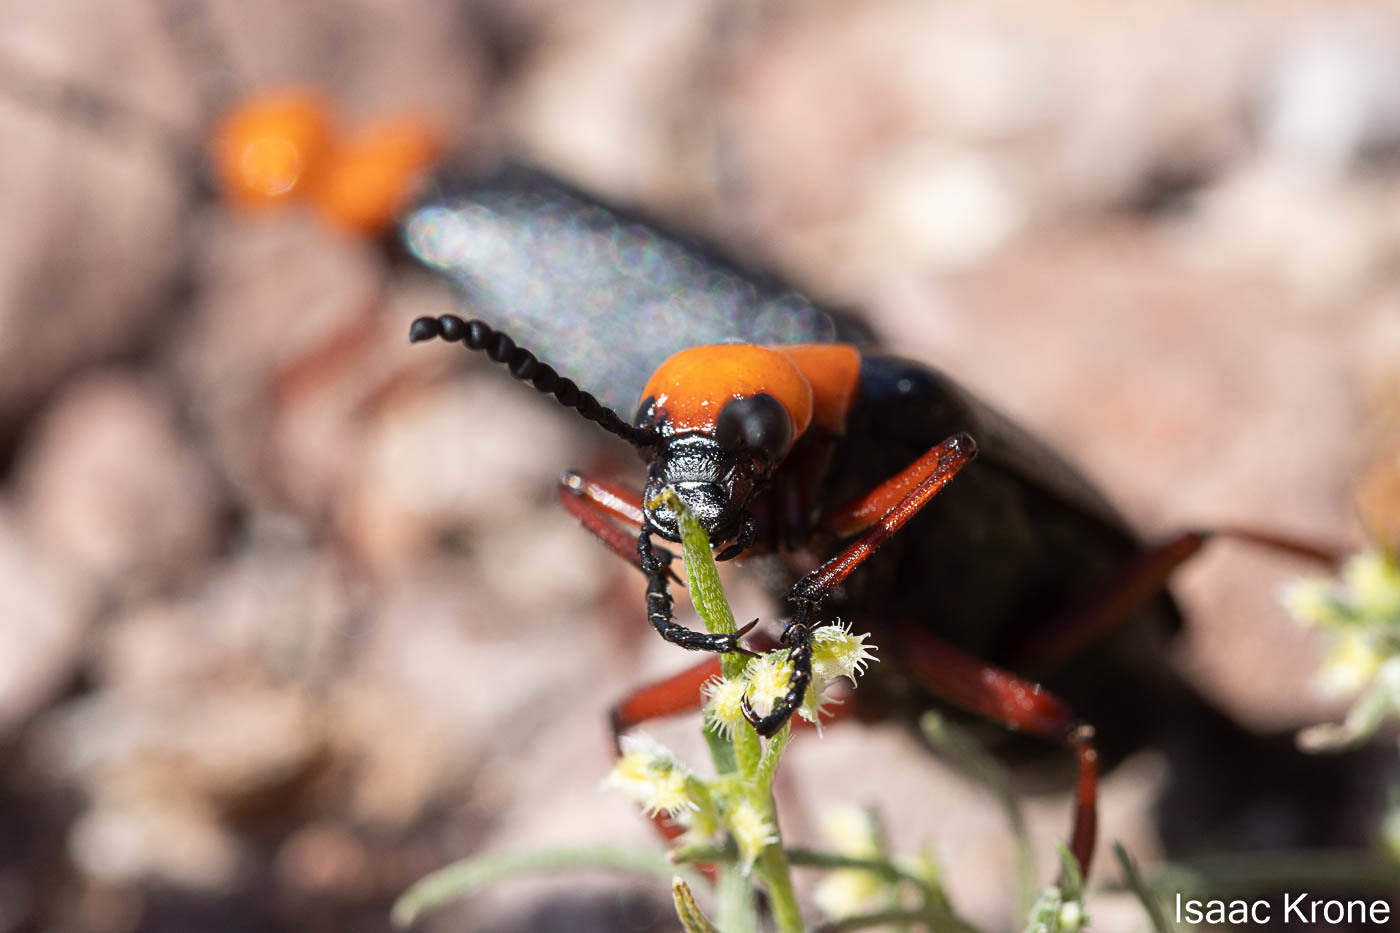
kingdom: Animalia
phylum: Arthropoda
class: Insecta
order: Coleoptera
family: Meloidae
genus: Lytta
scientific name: Lytta magister
